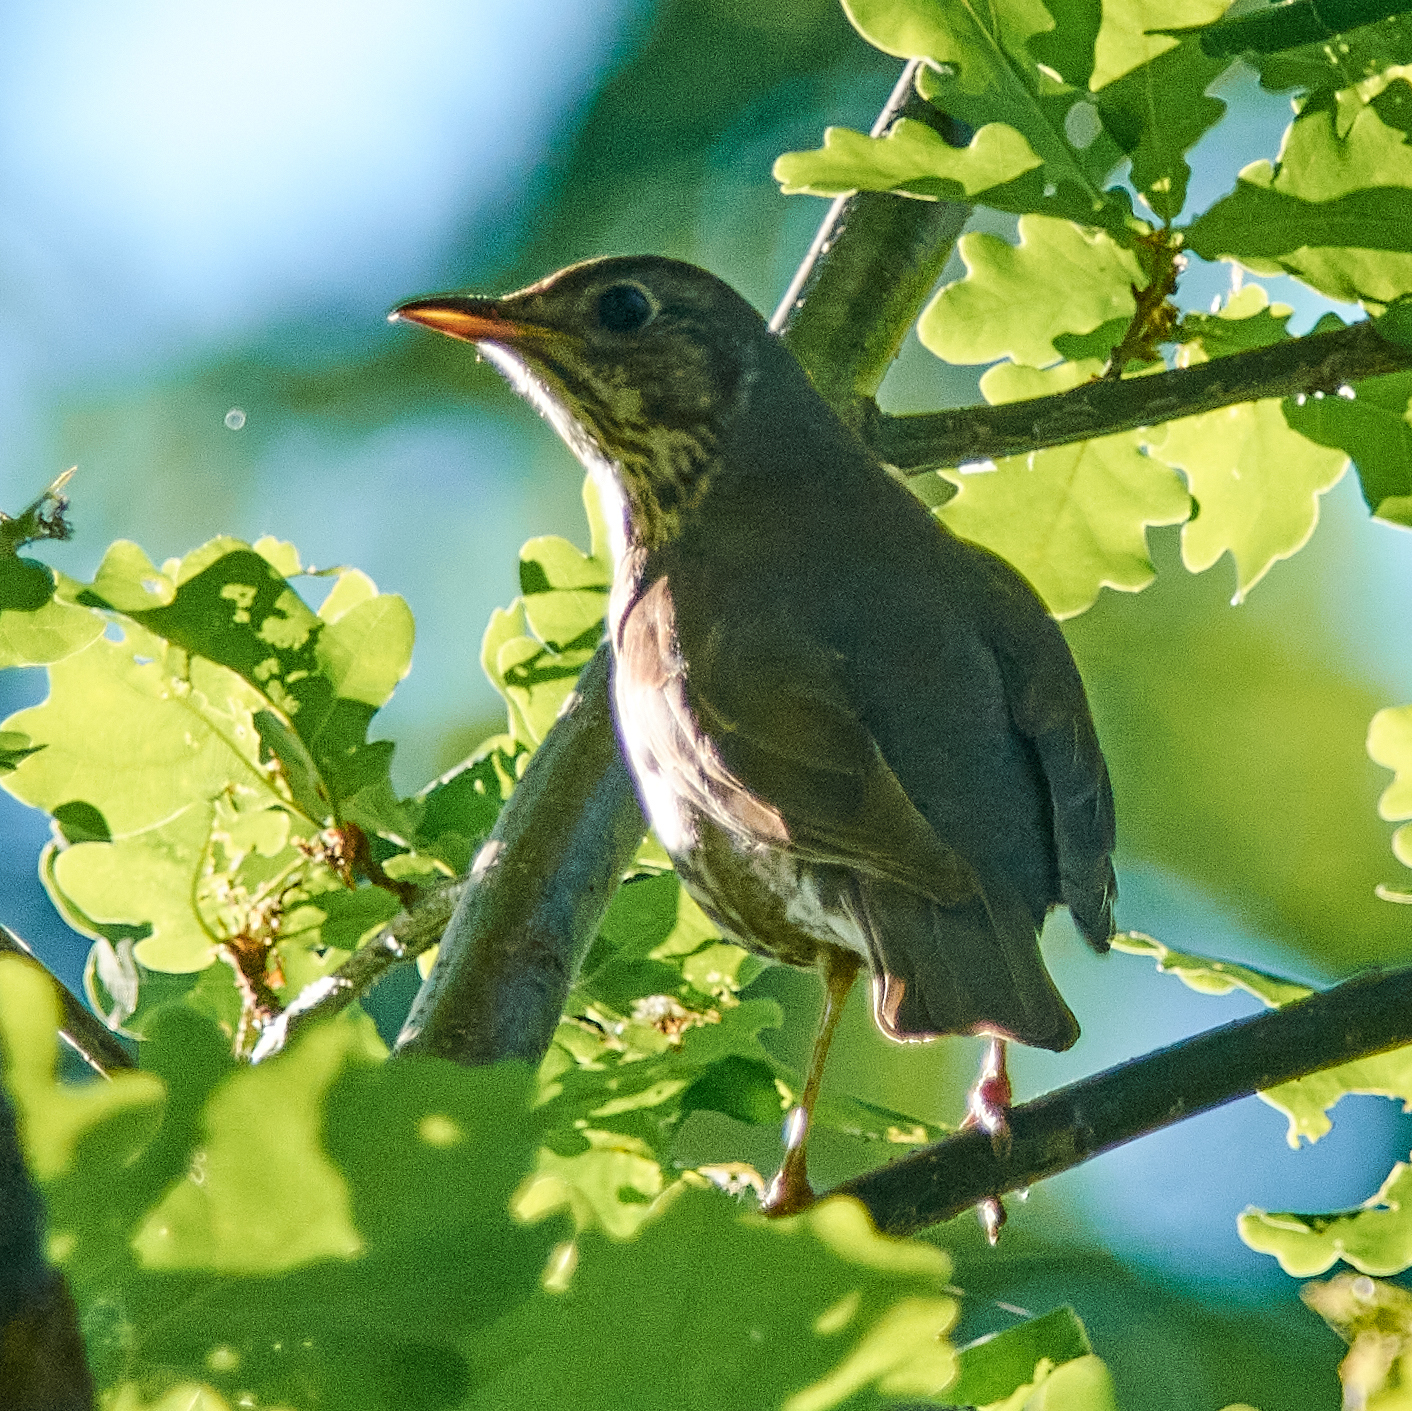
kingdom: Animalia
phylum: Chordata
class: Aves
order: Passeriformes
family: Turdidae
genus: Turdus
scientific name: Turdus philomelos
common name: Song thrush
